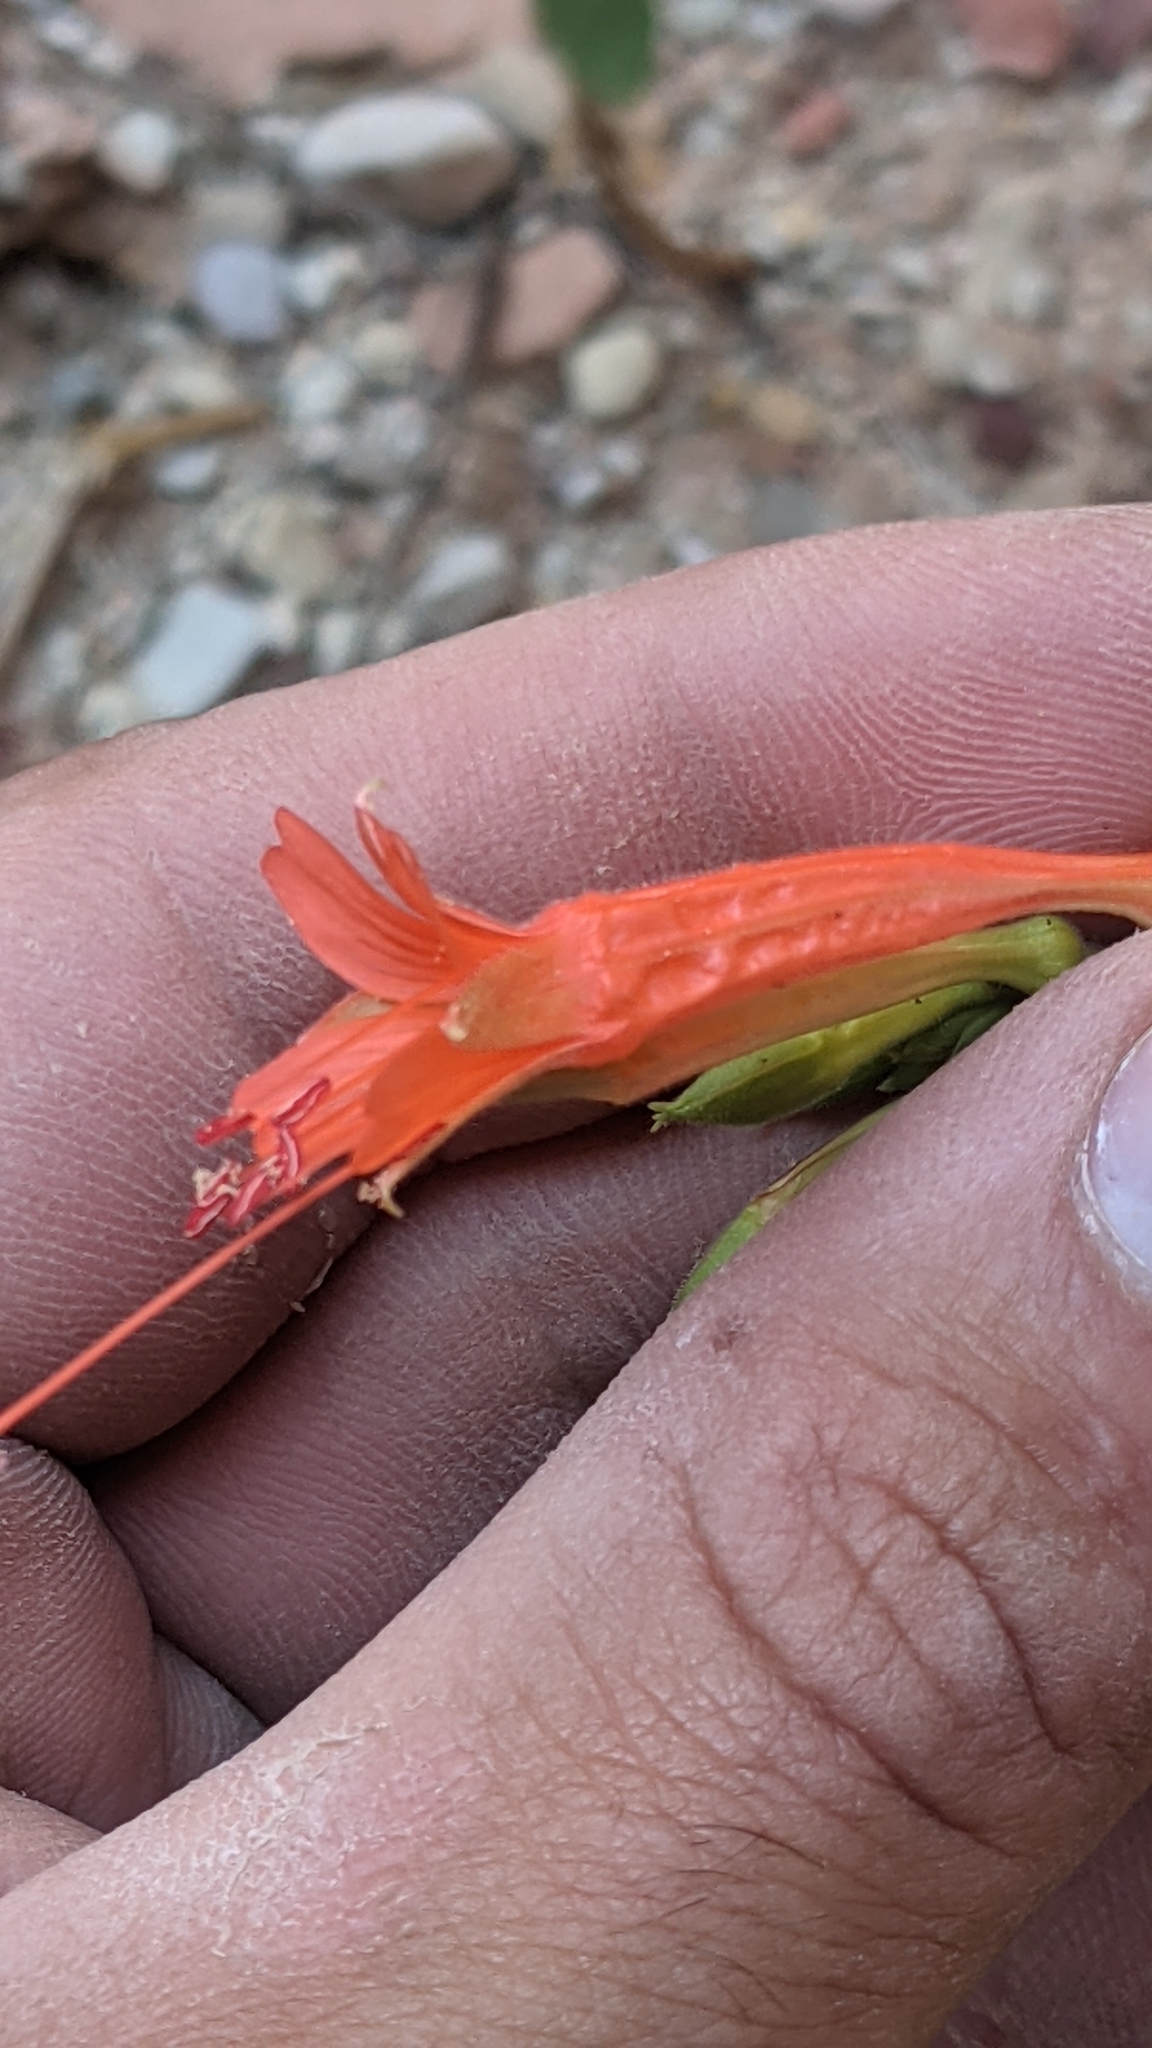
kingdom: Plantae
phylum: Tracheophyta
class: Magnoliopsida
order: Myrtales
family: Onagraceae
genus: Epilobium
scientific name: Epilobium canum
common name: California-fuchsia
